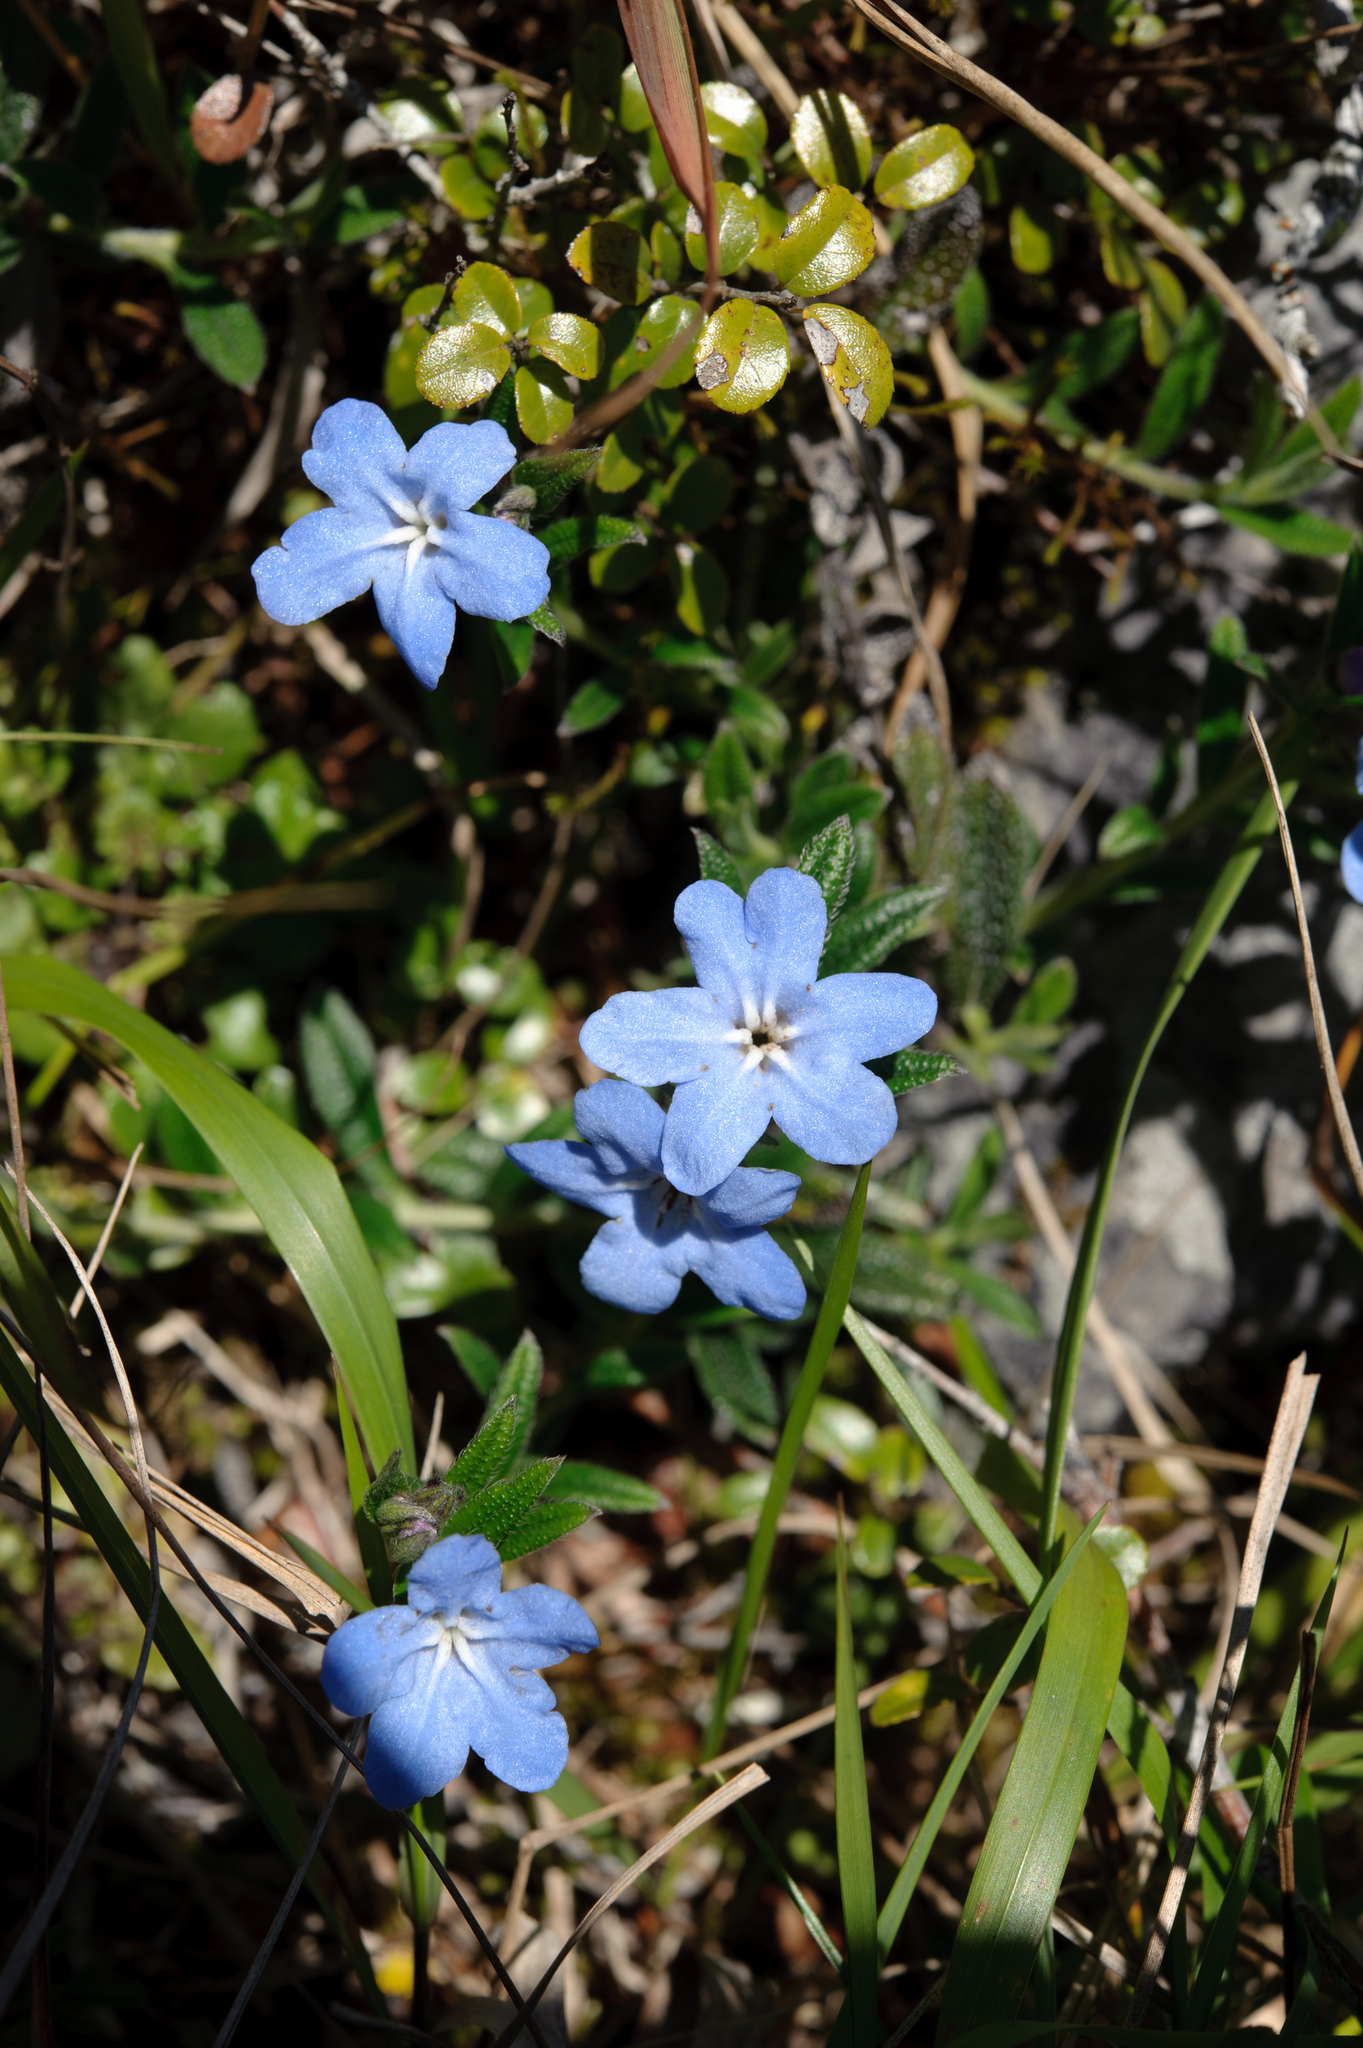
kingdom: Plantae
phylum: Tracheophyta
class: Magnoliopsida
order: Boraginales
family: Boraginaceae
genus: Aegonychon
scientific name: Aegonychon zollingeri
